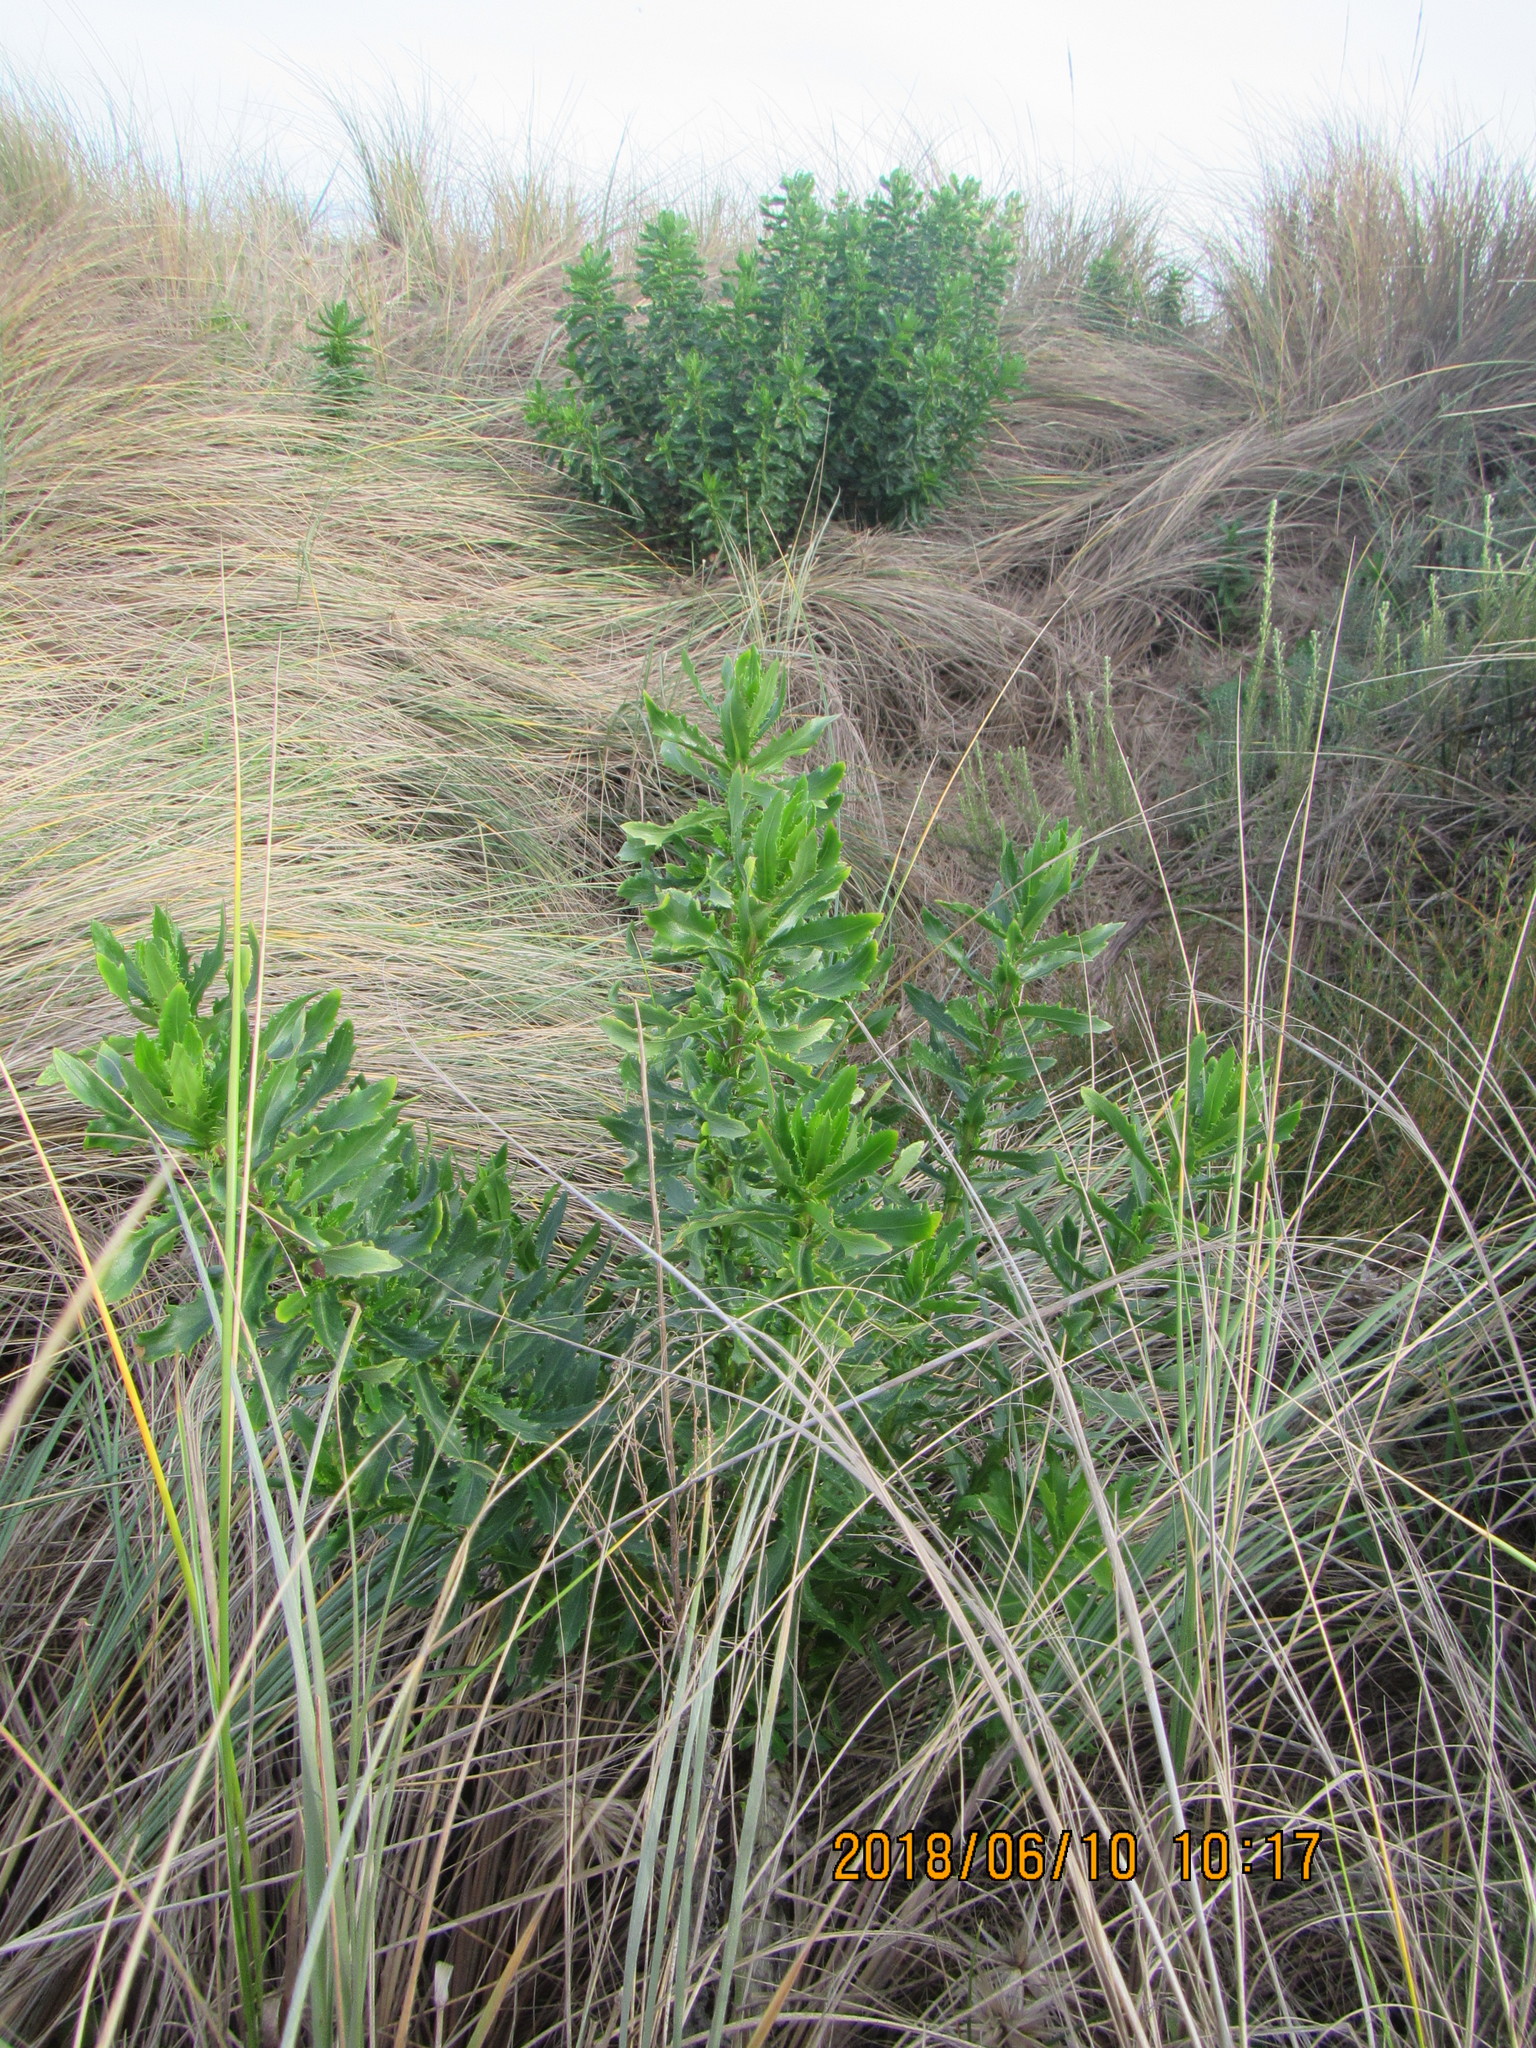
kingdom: Plantae
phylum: Tracheophyta
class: Magnoliopsida
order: Asterales
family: Asteraceae
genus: Senecio
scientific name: Senecio glastifolius
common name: Woad-leaved ragwort
